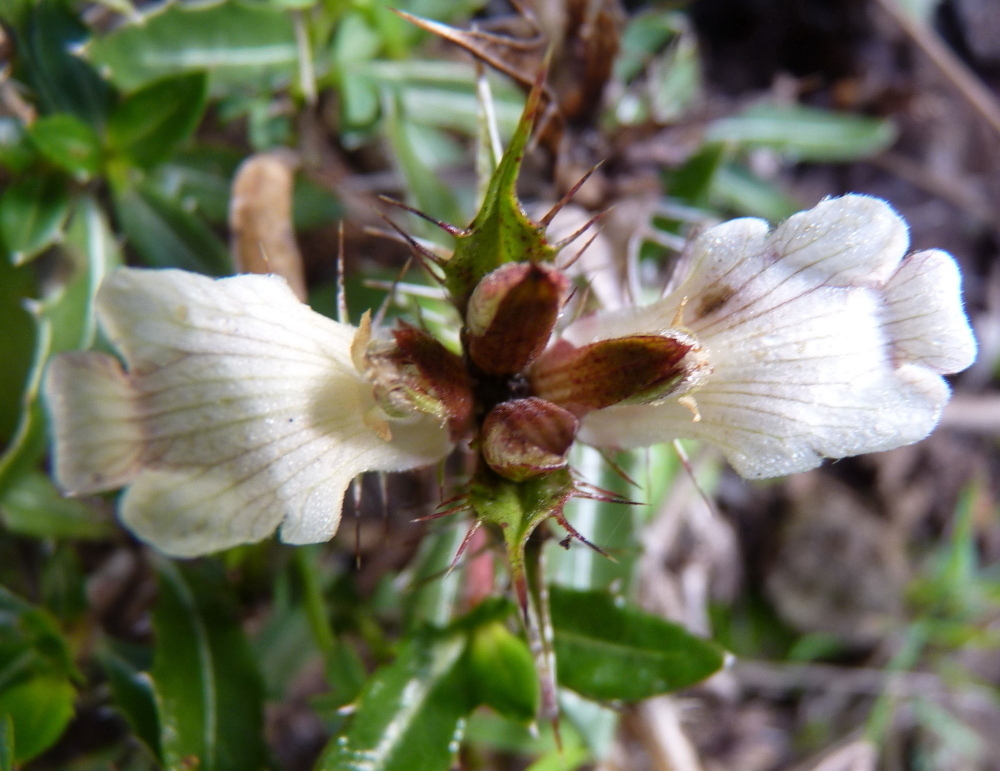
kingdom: Plantae
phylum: Tracheophyta
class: Magnoliopsida
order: Lamiales
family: Acanthaceae
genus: Blepharis
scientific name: Blepharis capensis
